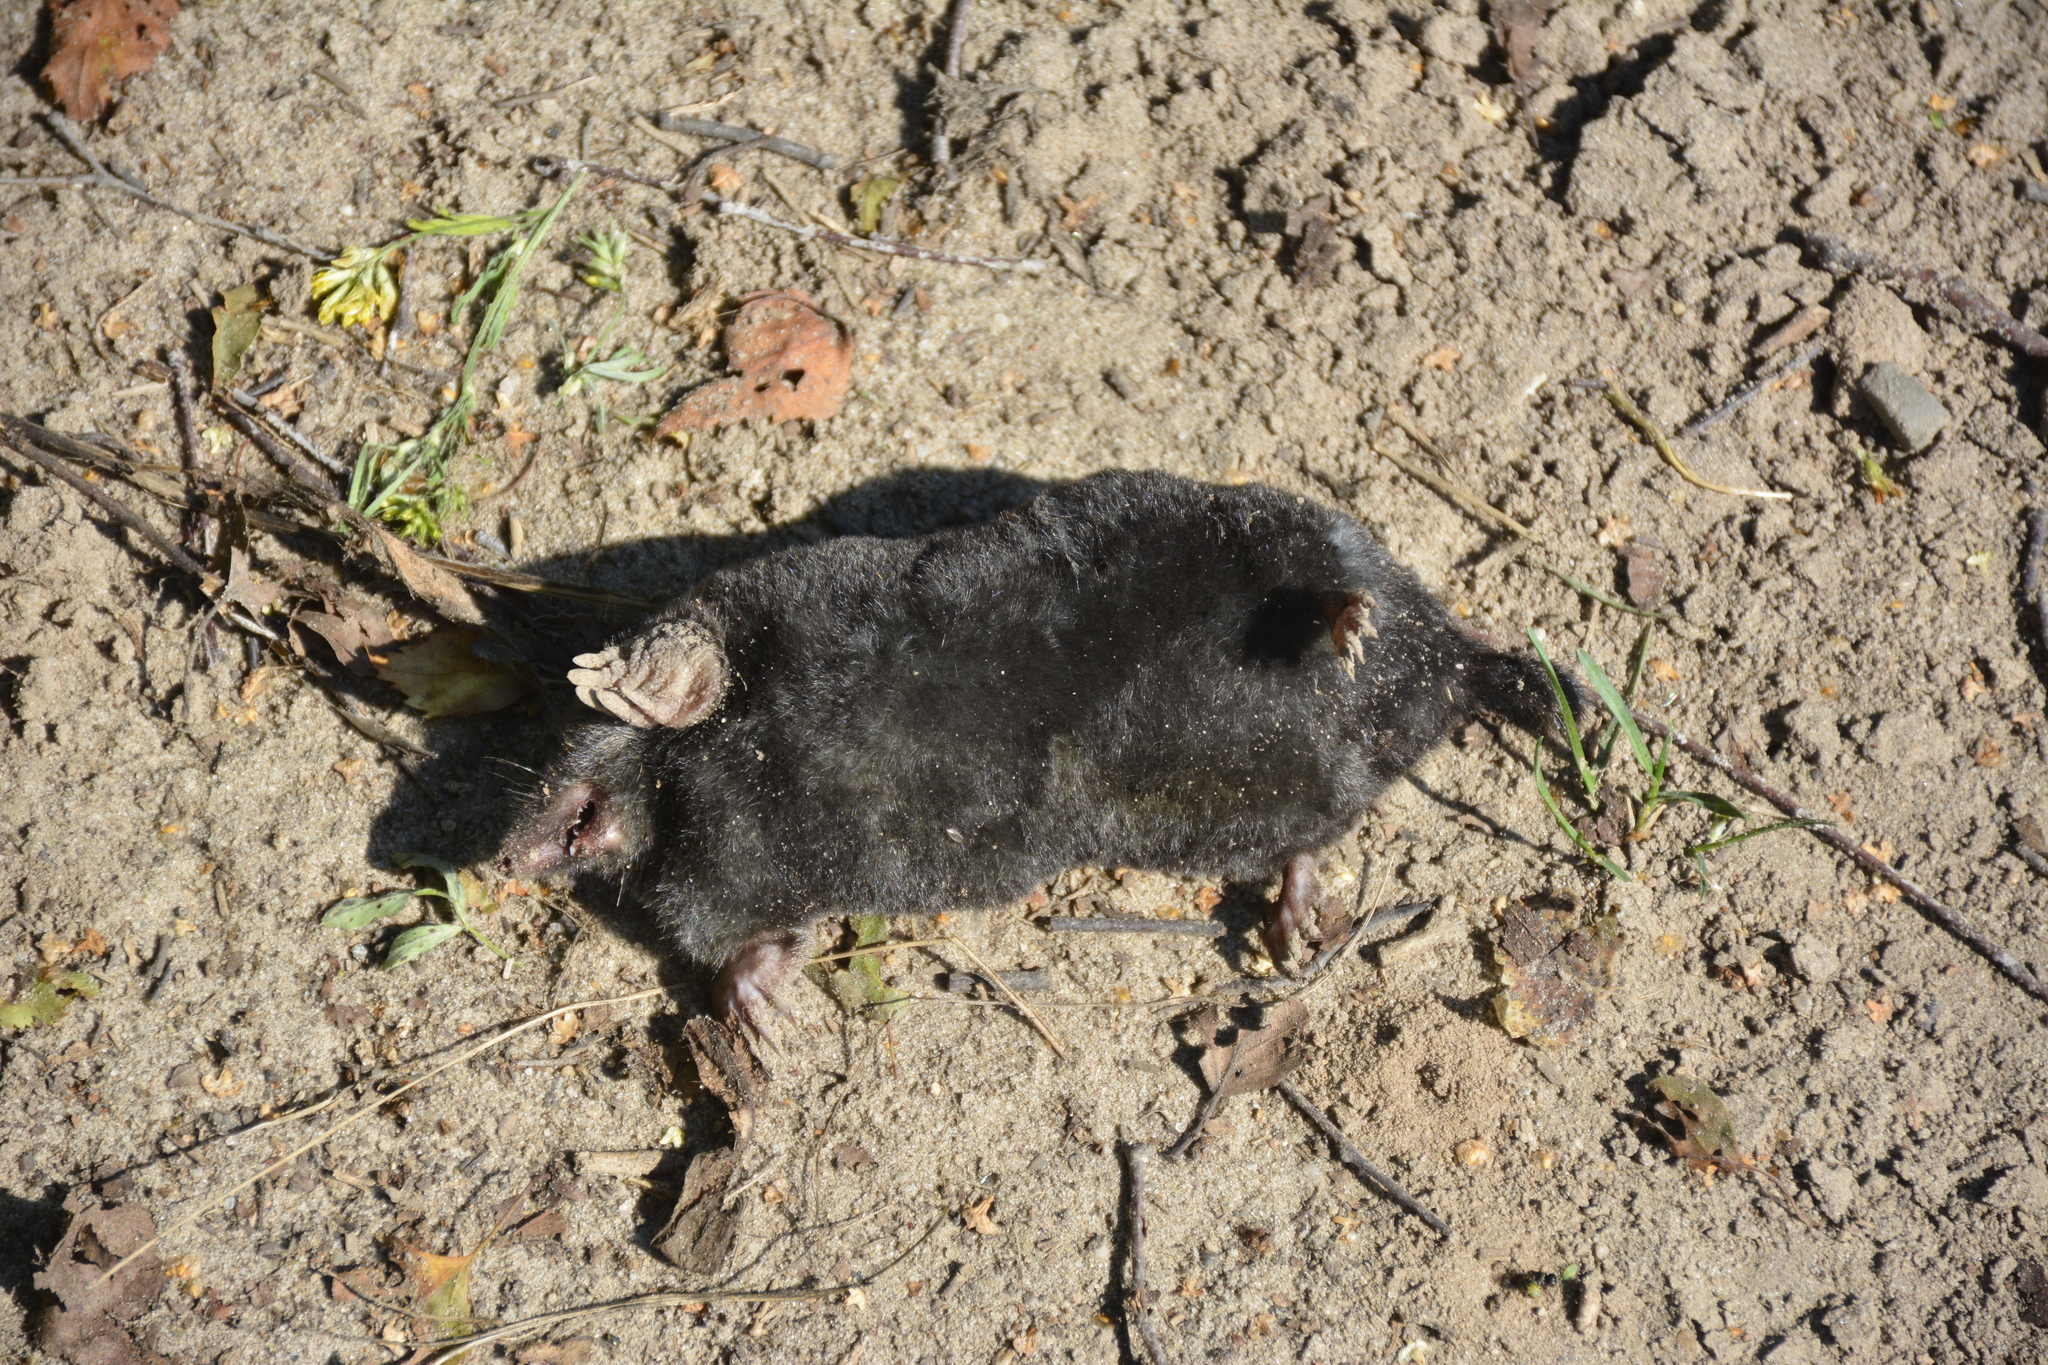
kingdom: Animalia
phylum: Chordata
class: Mammalia
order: Soricomorpha
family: Talpidae
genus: Talpa
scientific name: Talpa europaea
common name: European mole
